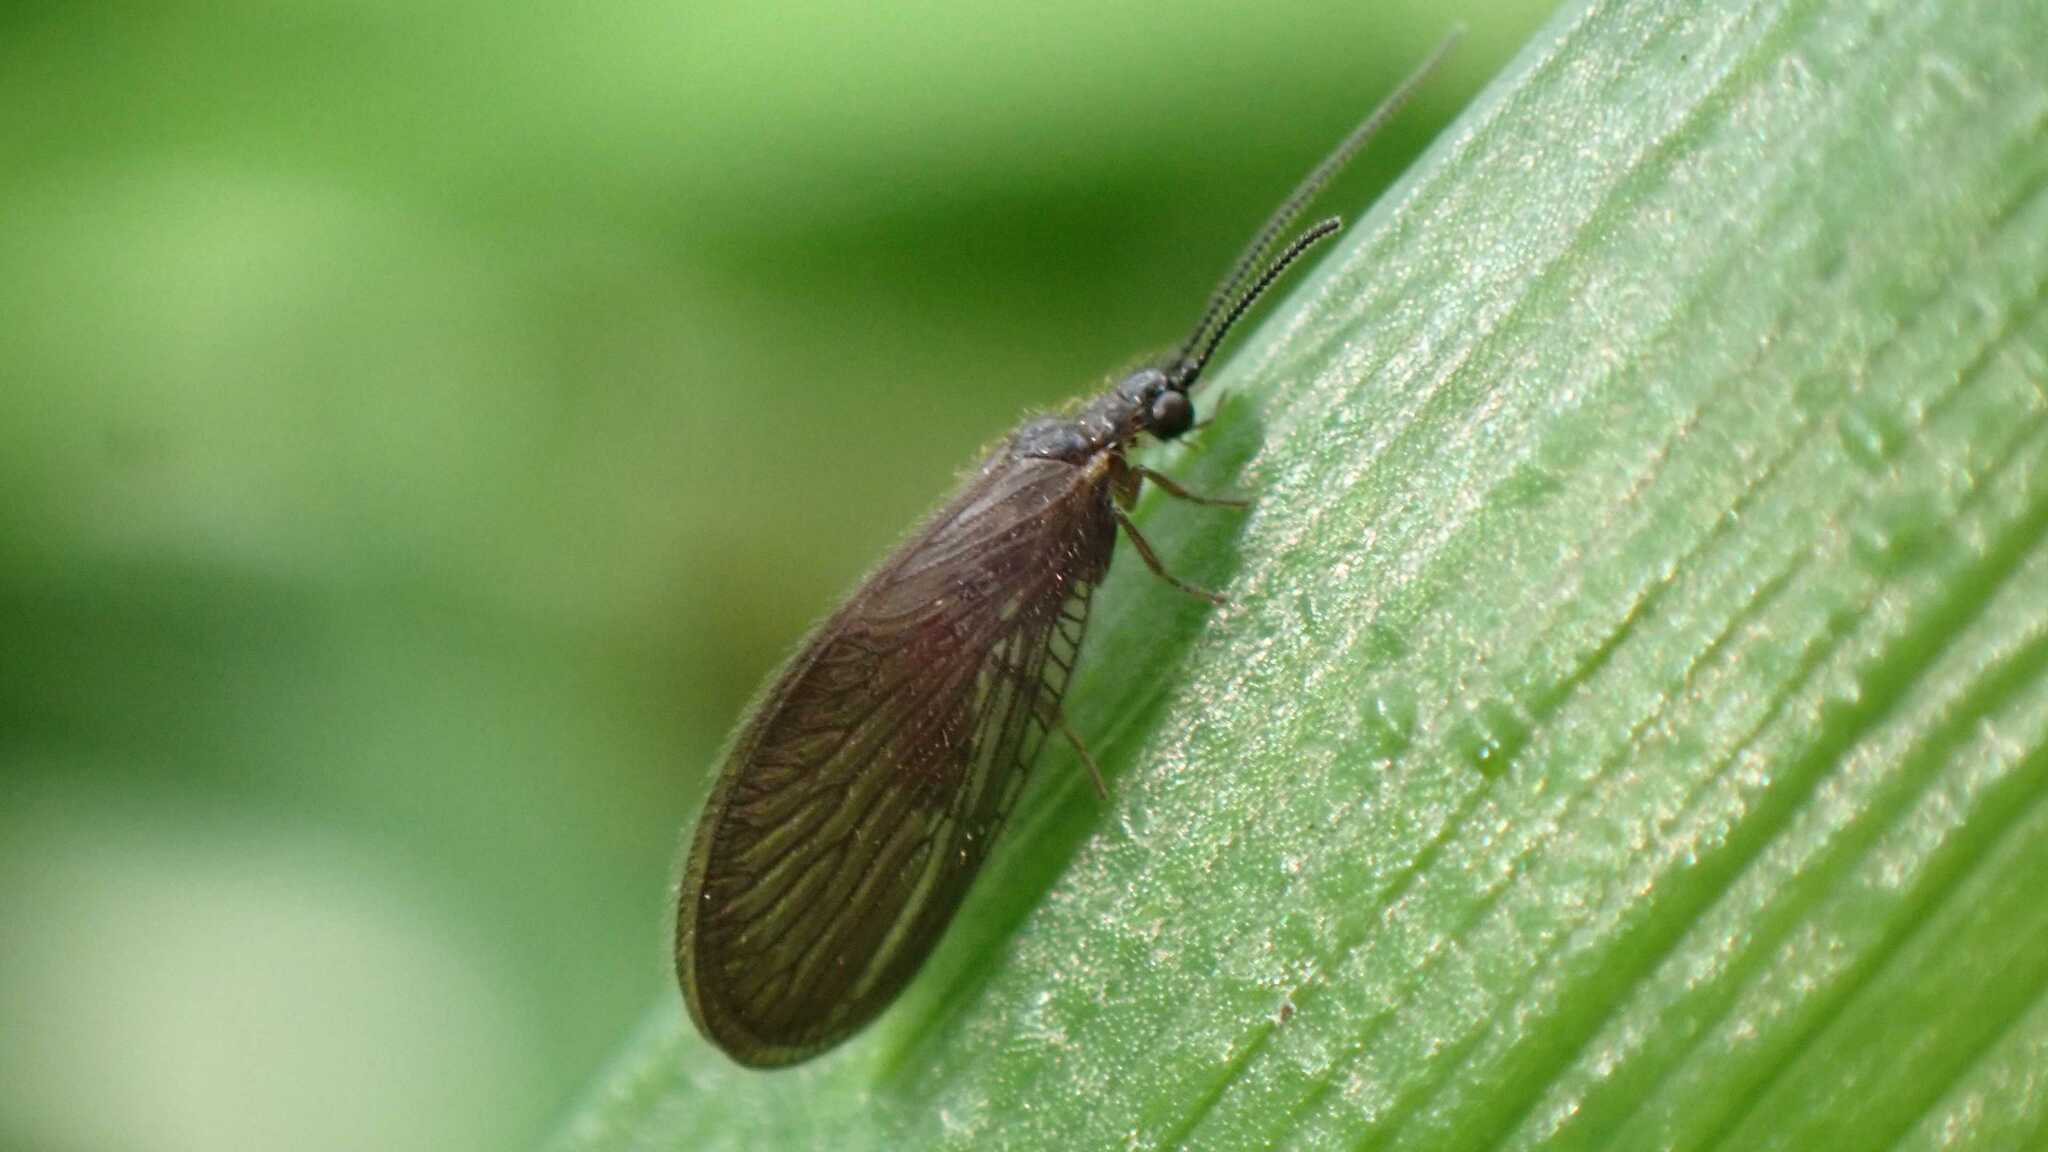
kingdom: Animalia
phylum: Arthropoda
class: Insecta
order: Neuroptera
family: Sisyridae
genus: Sisyra
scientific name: Sisyra nigra
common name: Black spongillafly
